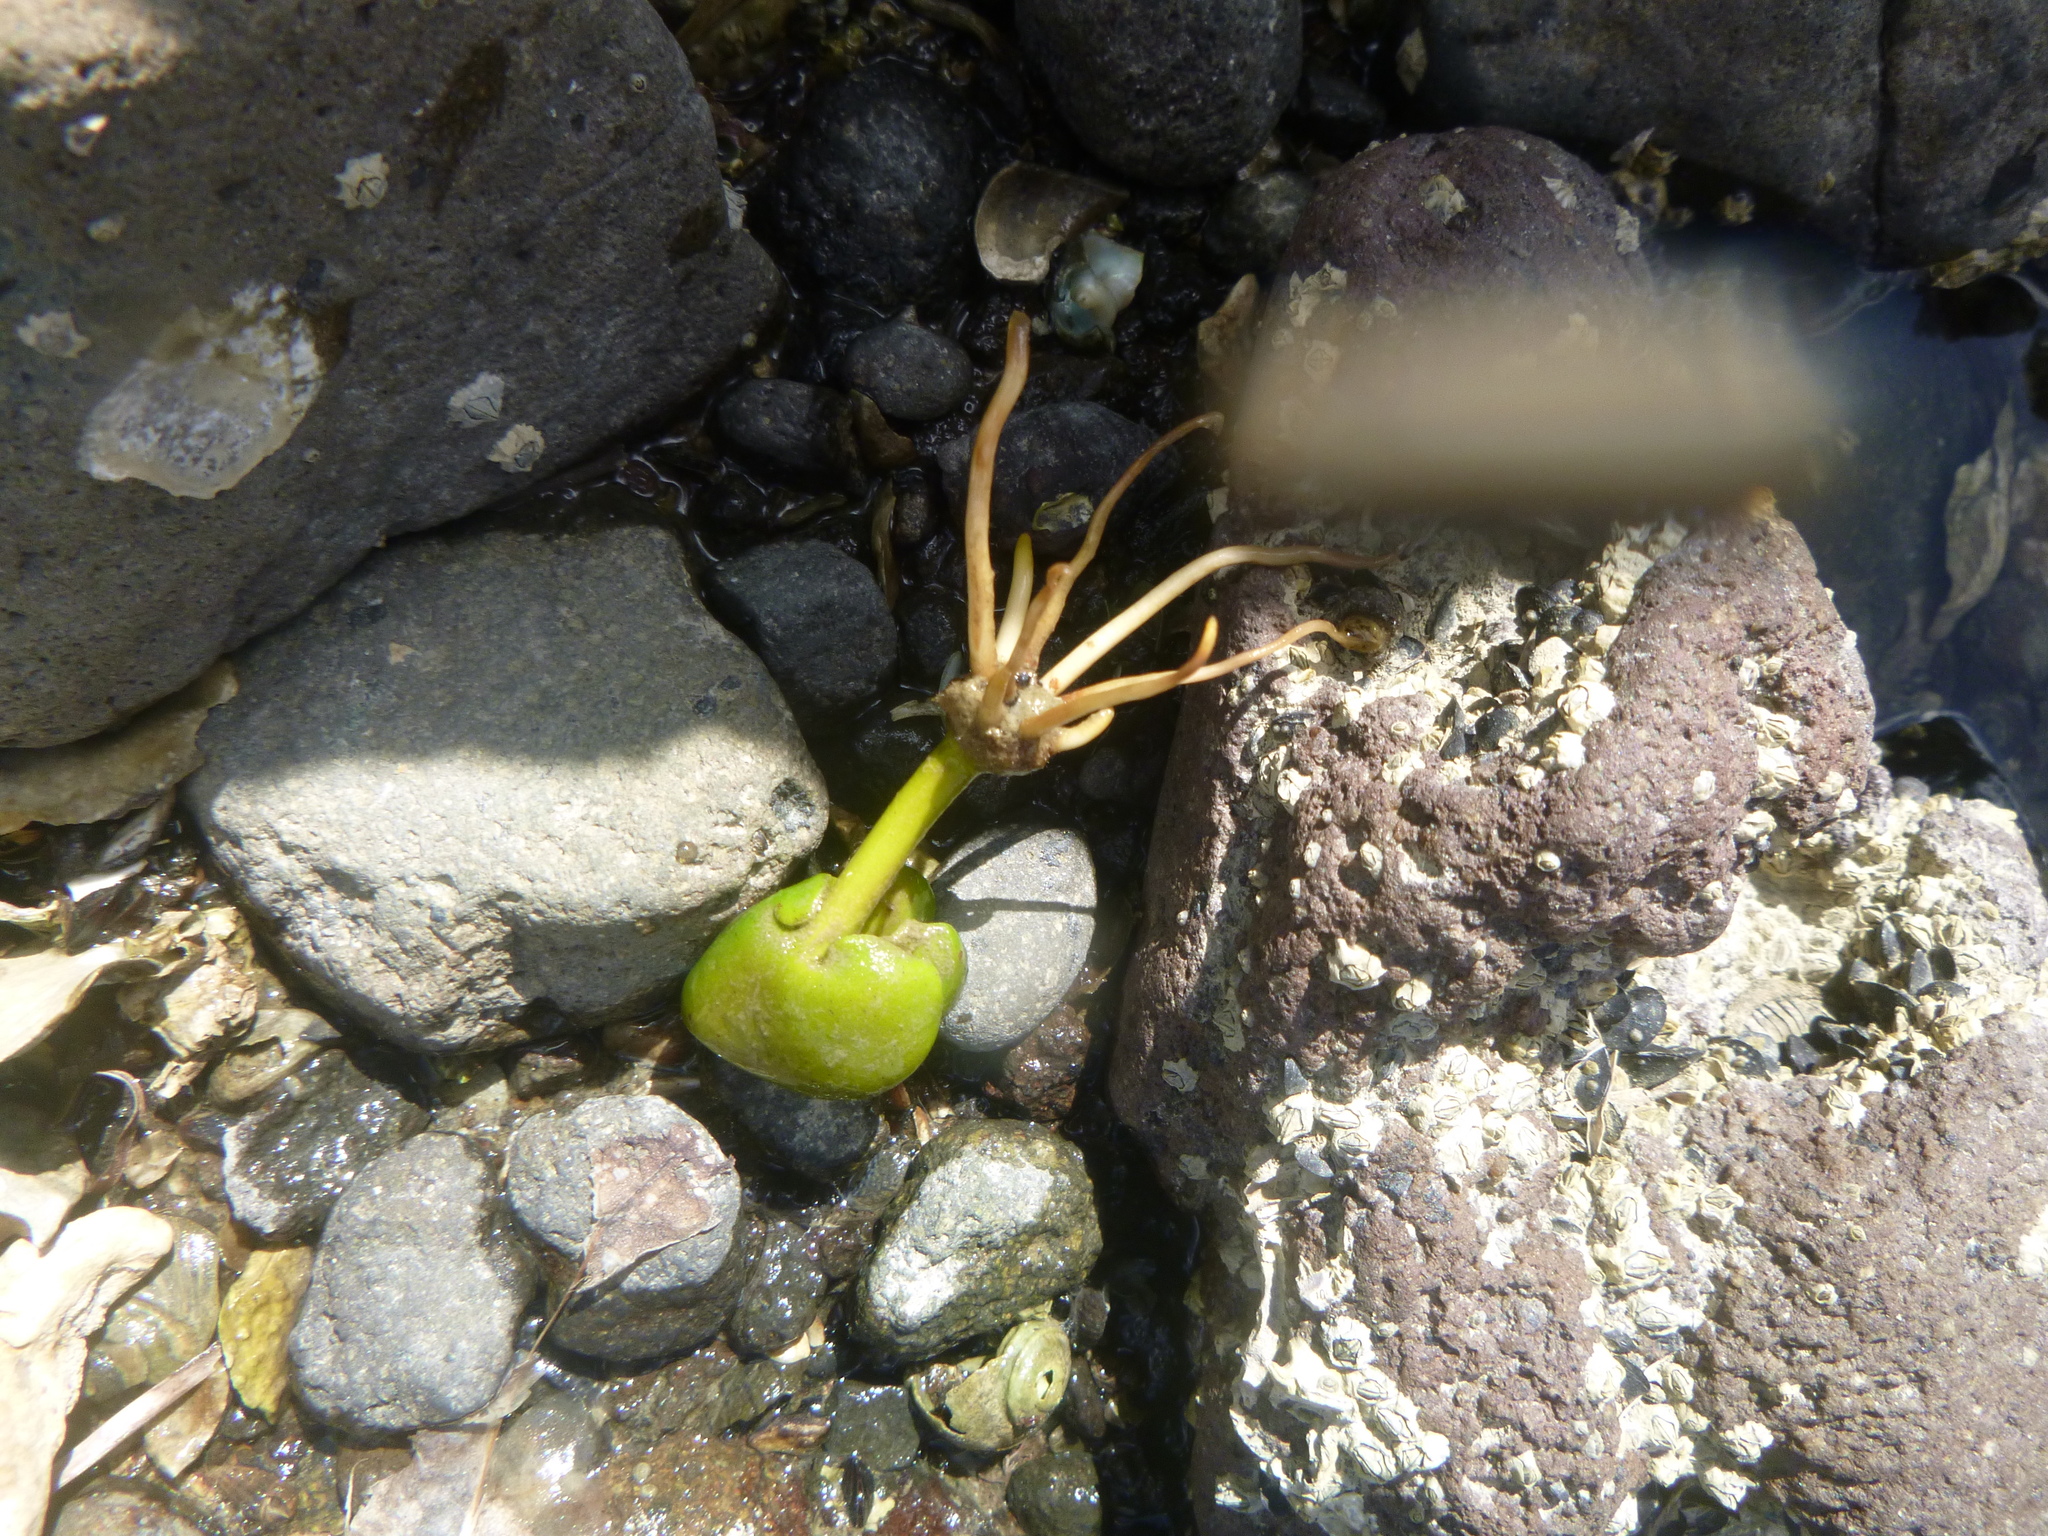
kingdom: Plantae
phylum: Tracheophyta
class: Magnoliopsida
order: Lamiales
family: Acanthaceae
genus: Avicennia
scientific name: Avicennia marina
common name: Gray mangrove
